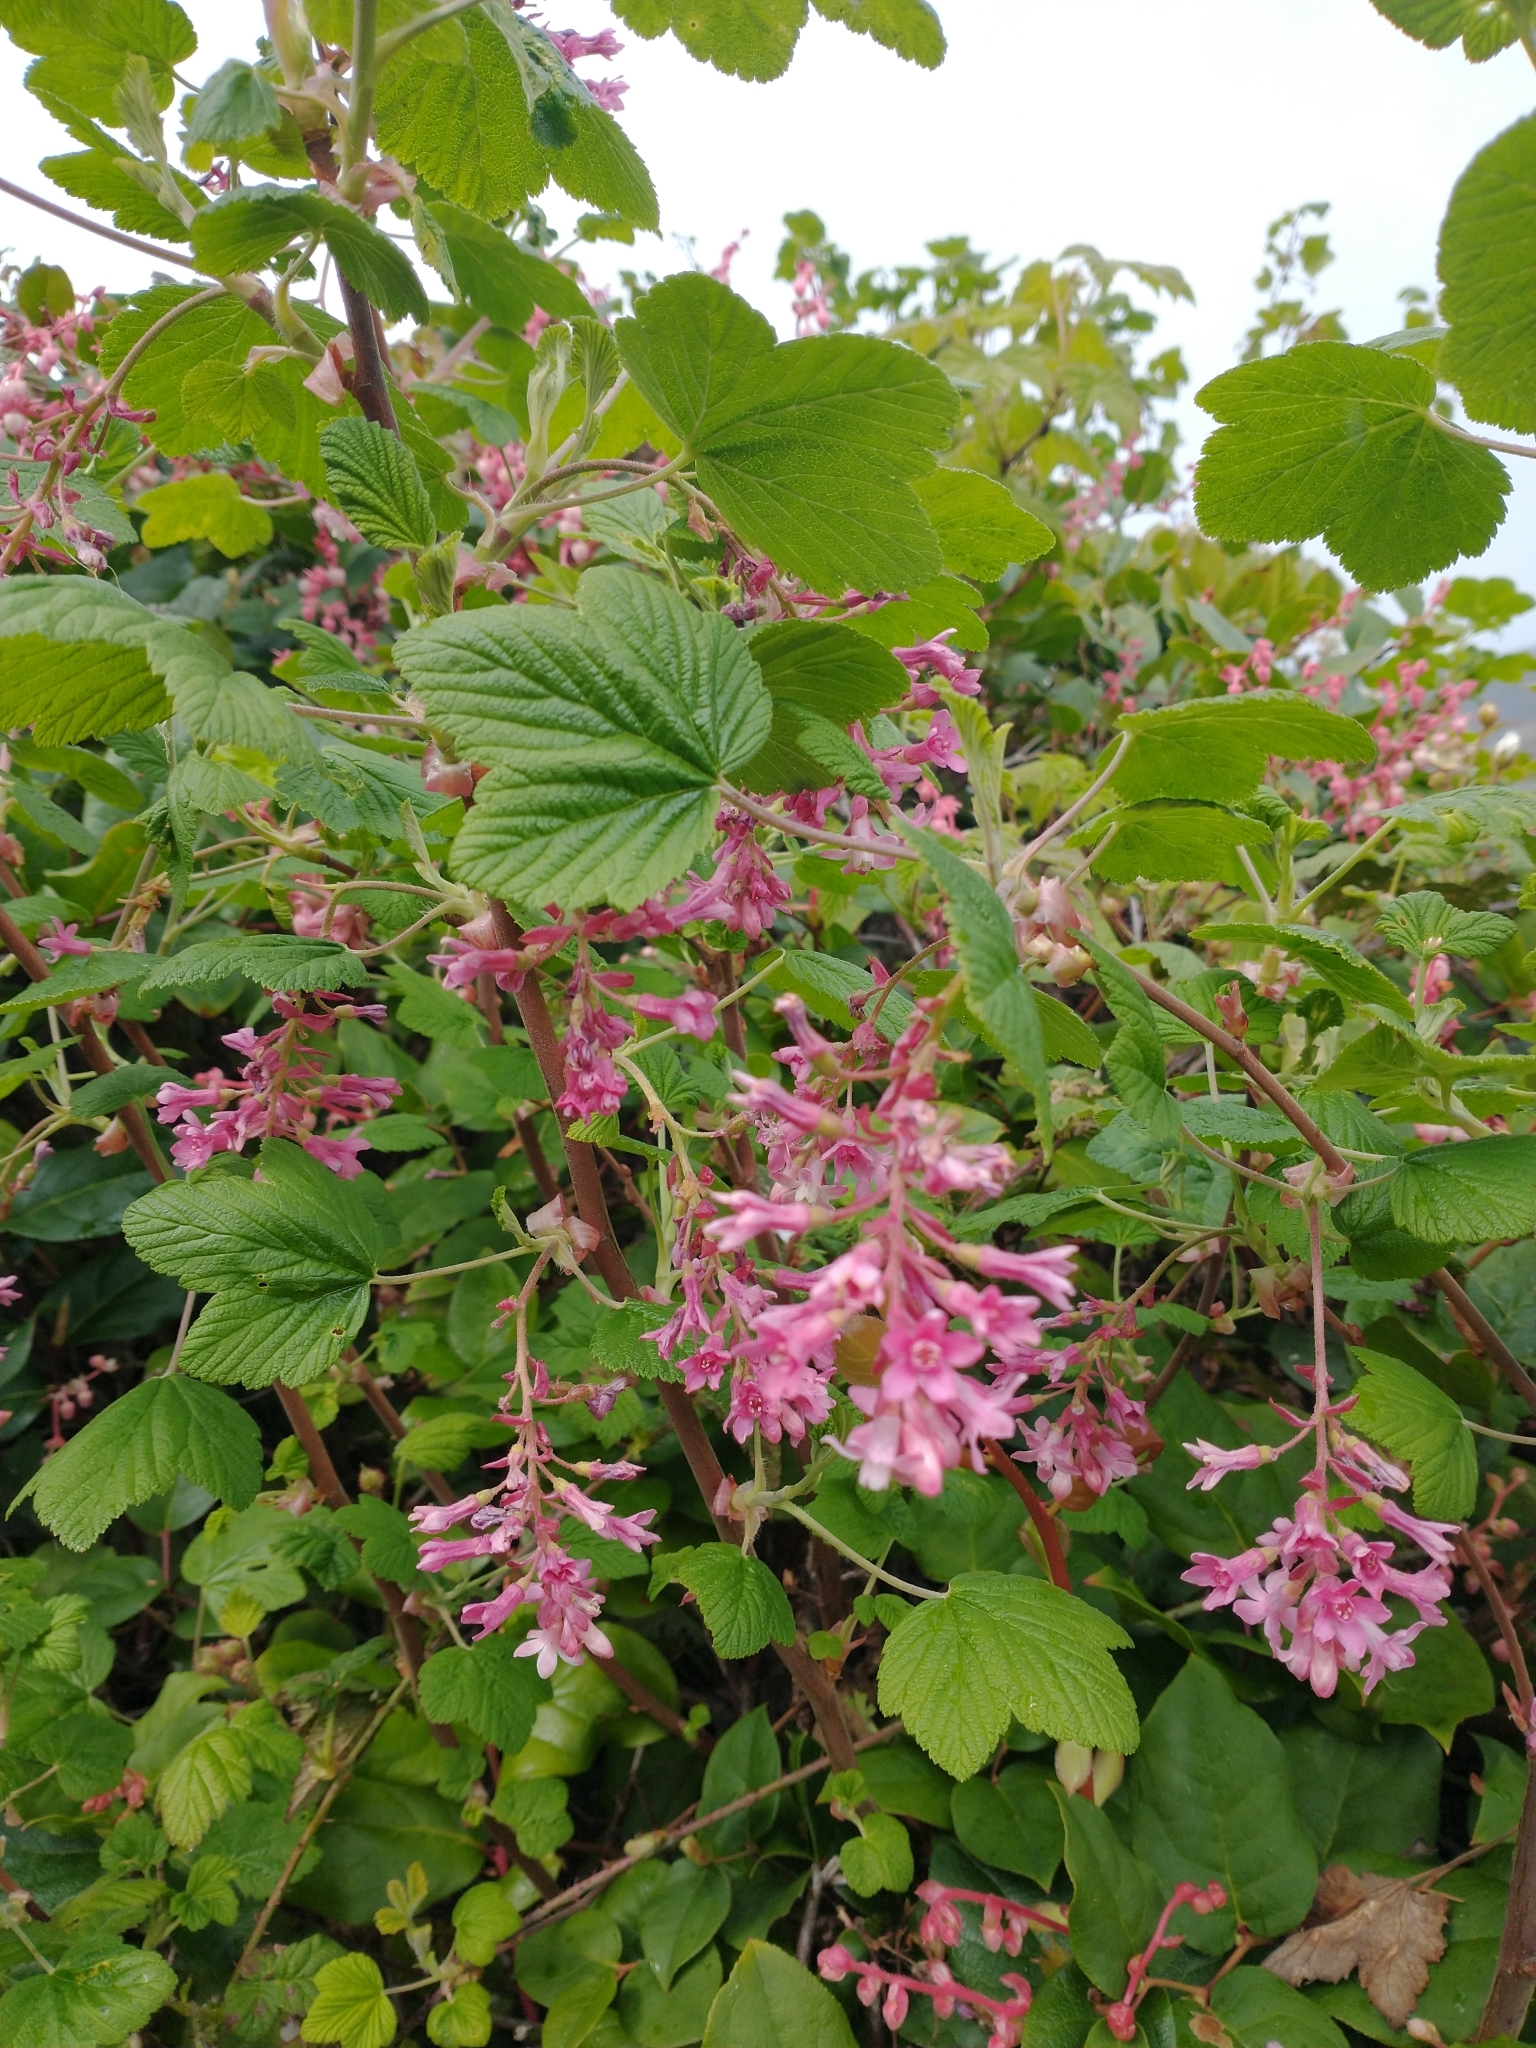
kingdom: Plantae
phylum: Tracheophyta
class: Magnoliopsida
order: Saxifragales
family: Grossulariaceae
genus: Ribes
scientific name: Ribes sanguineum
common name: Flowering currant
